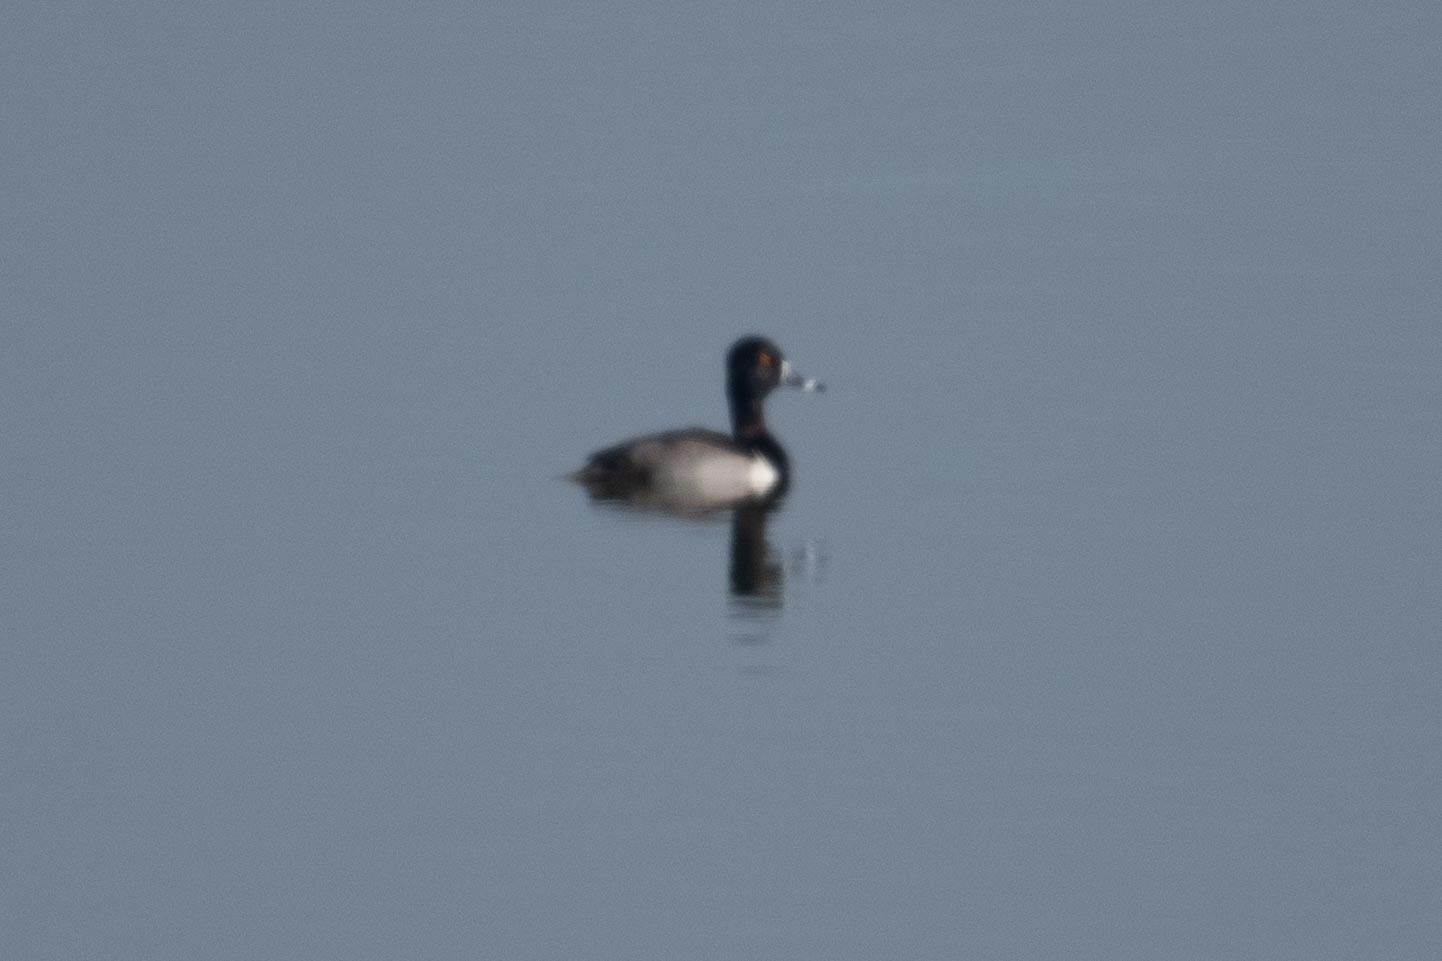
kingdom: Animalia
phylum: Chordata
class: Aves
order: Anseriformes
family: Anatidae
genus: Aythya
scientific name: Aythya collaris
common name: Ring-necked duck
